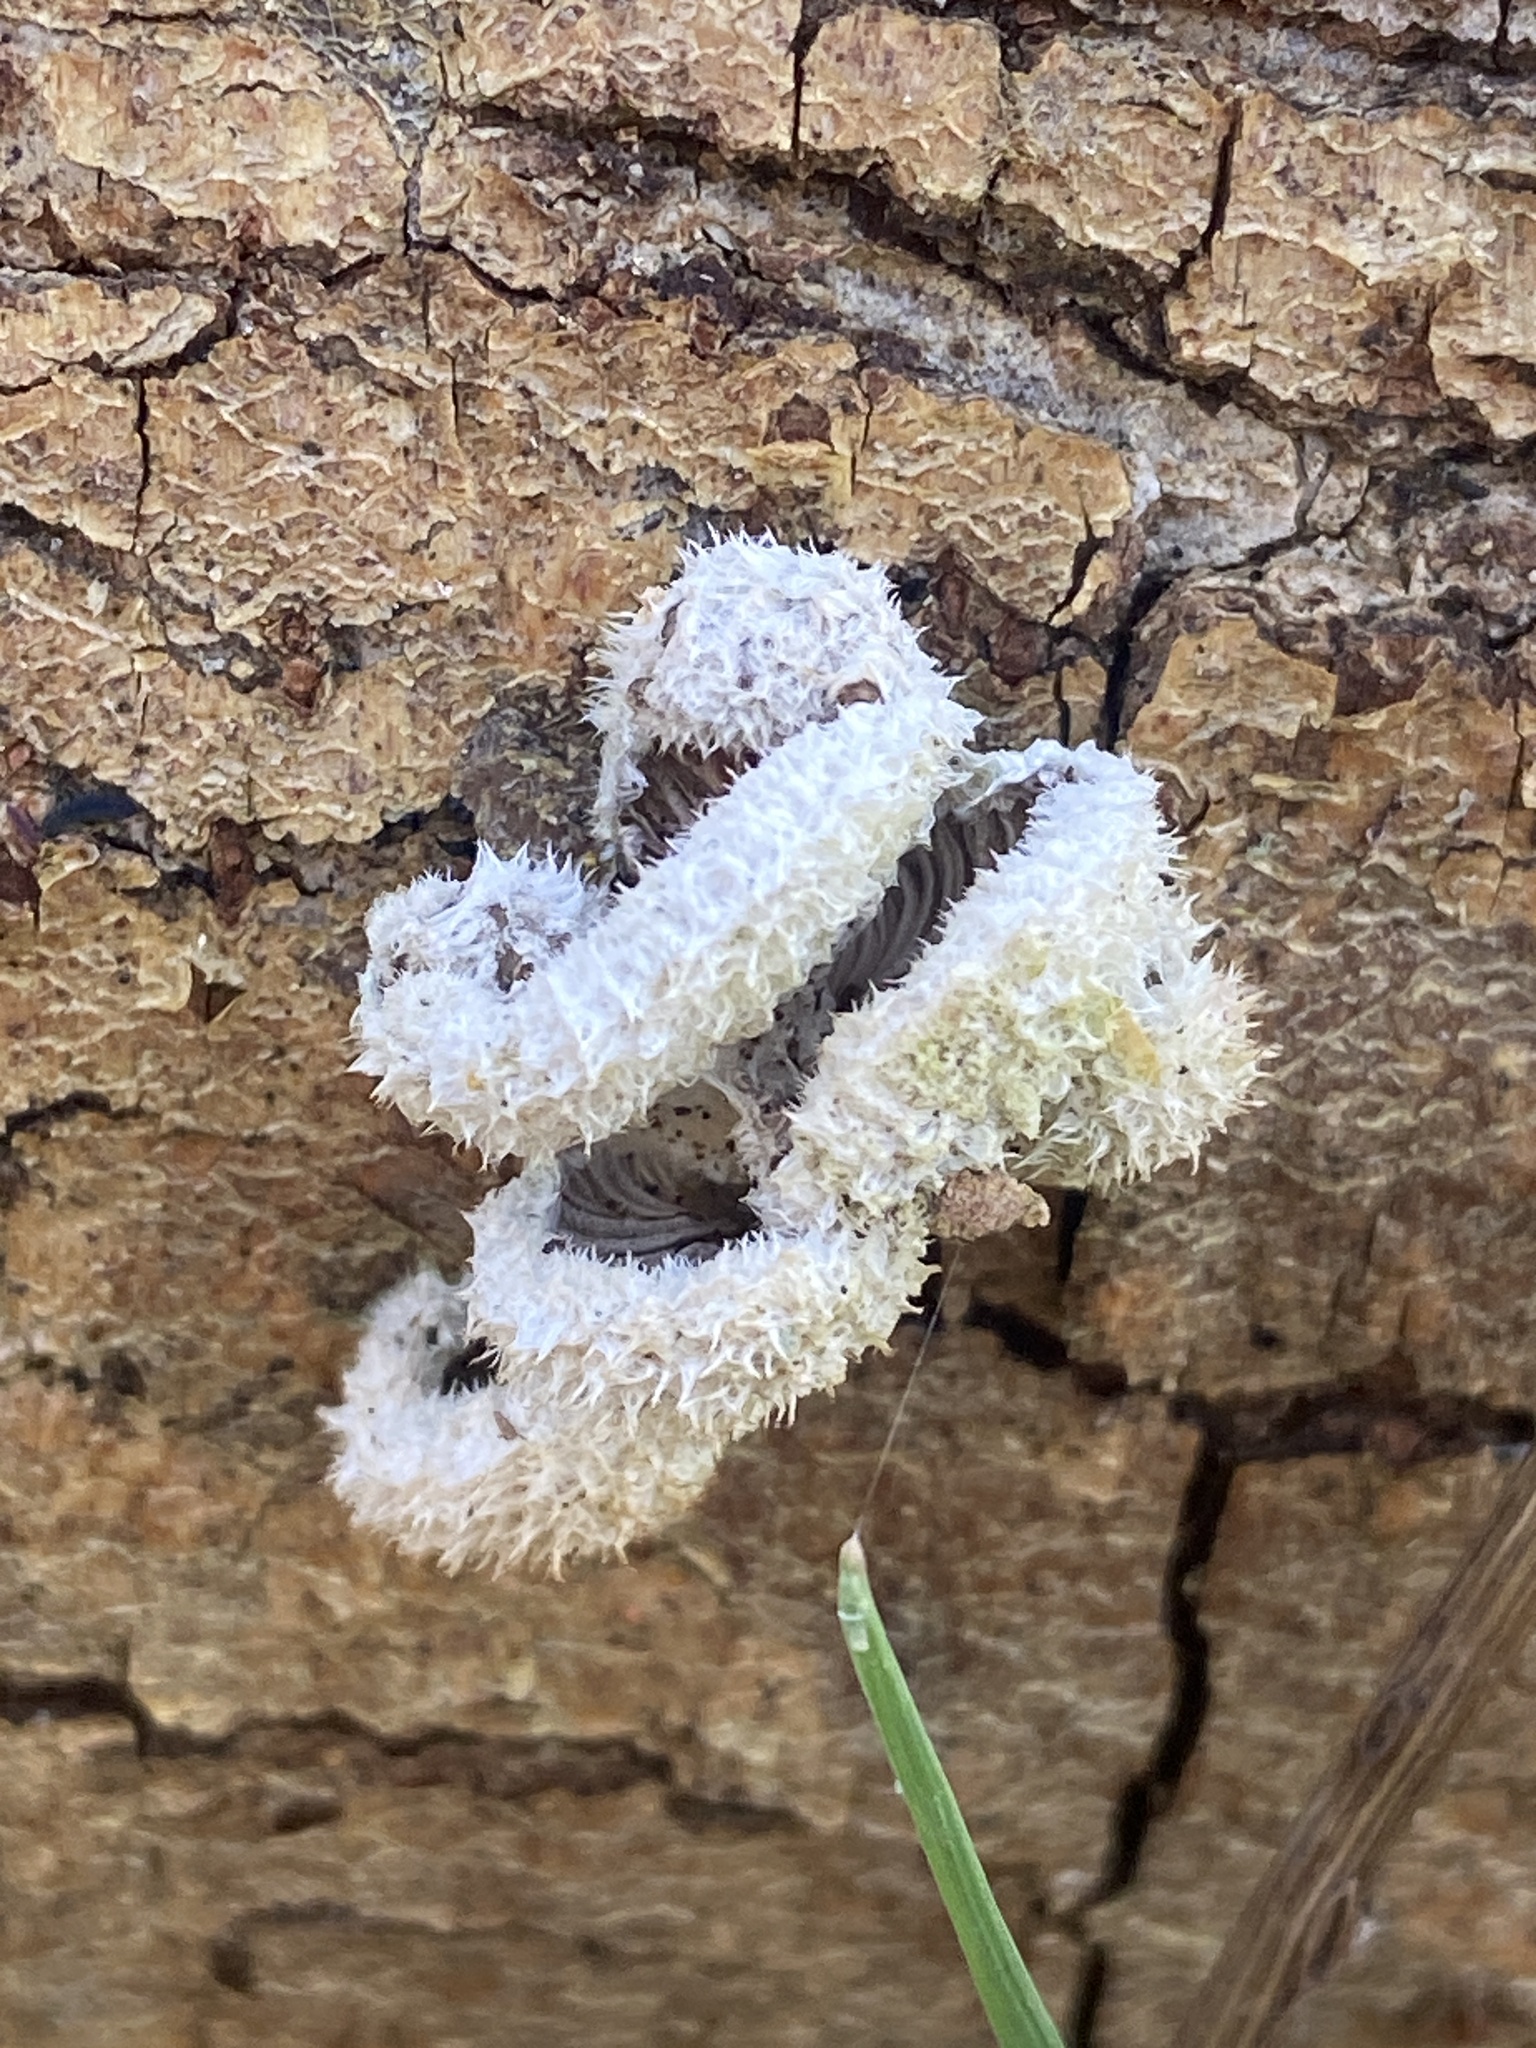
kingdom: Fungi
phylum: Basidiomycota
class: Agaricomycetes
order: Agaricales
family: Schizophyllaceae
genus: Schizophyllum
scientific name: Schizophyllum commune
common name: Common porecrust
